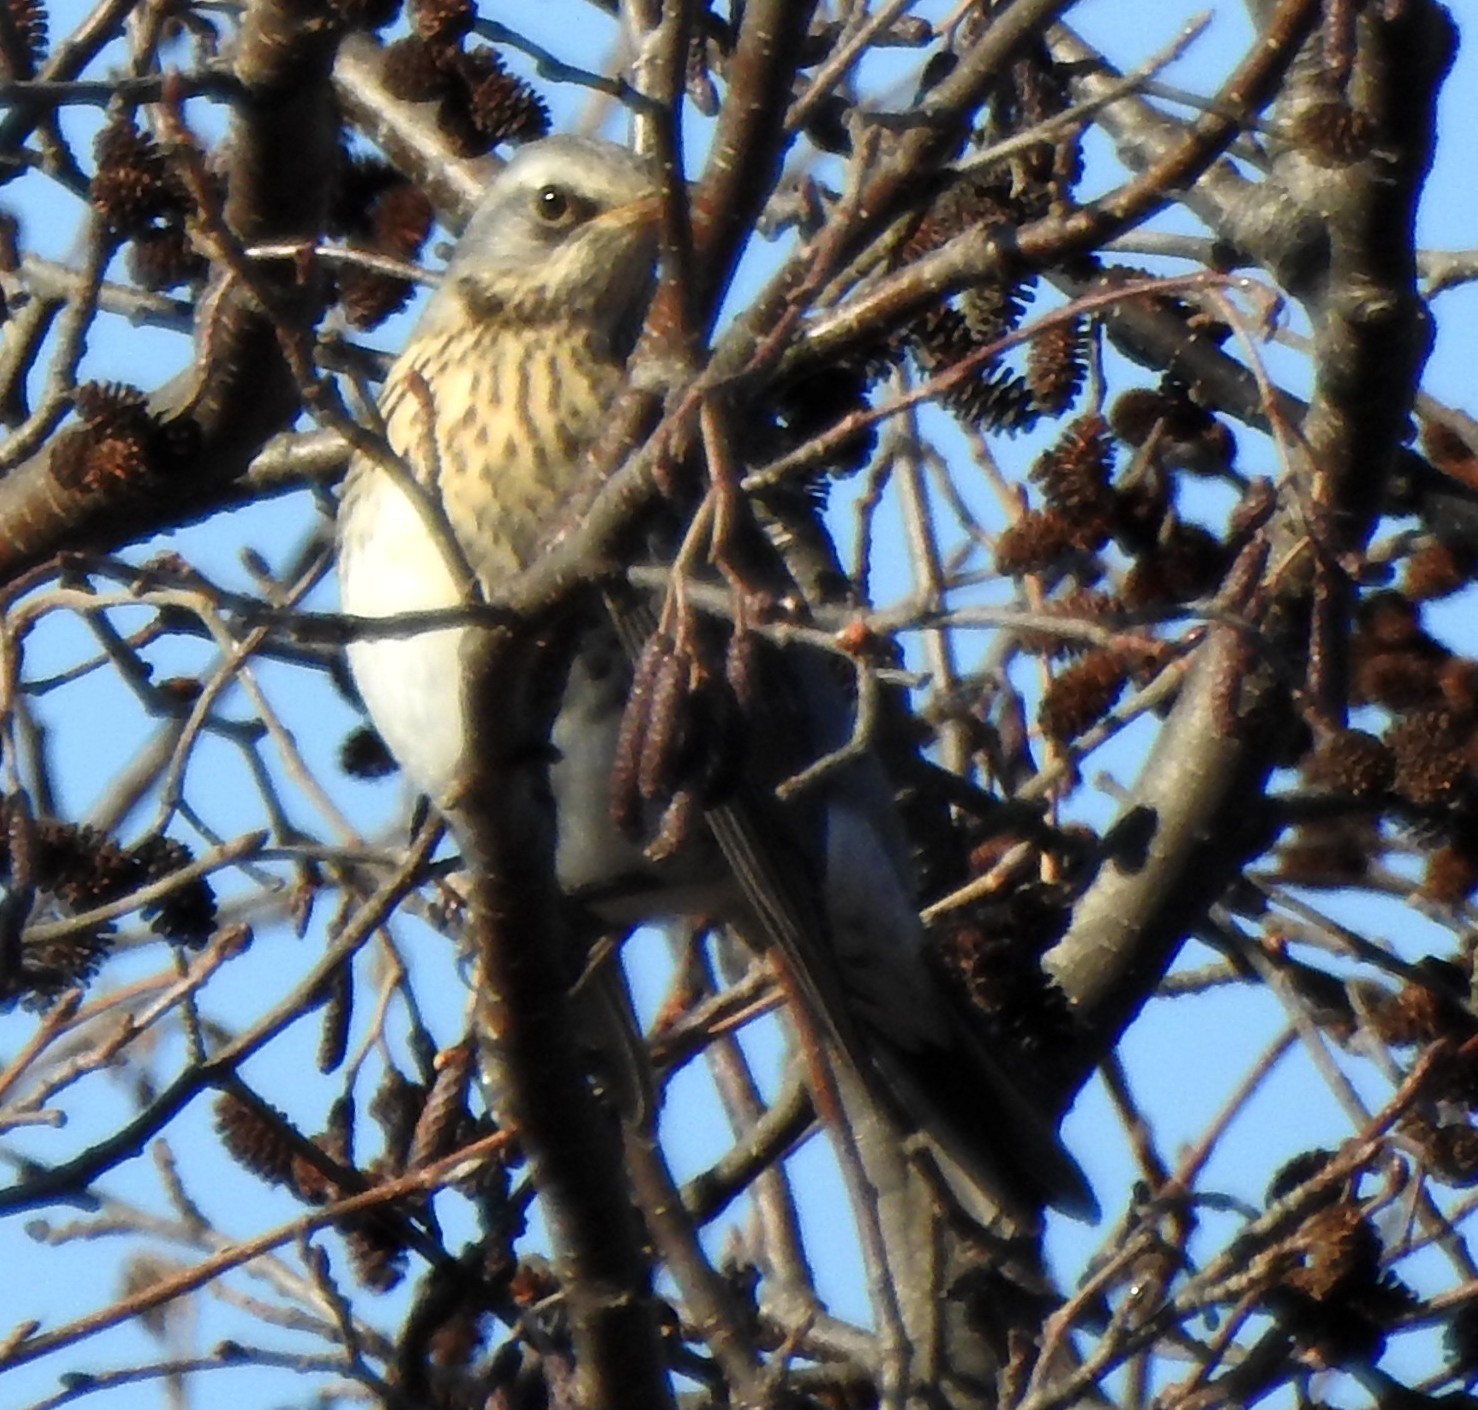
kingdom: Animalia
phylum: Chordata
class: Aves
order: Passeriformes
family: Turdidae
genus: Turdus
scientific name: Turdus pilaris
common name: Fieldfare
